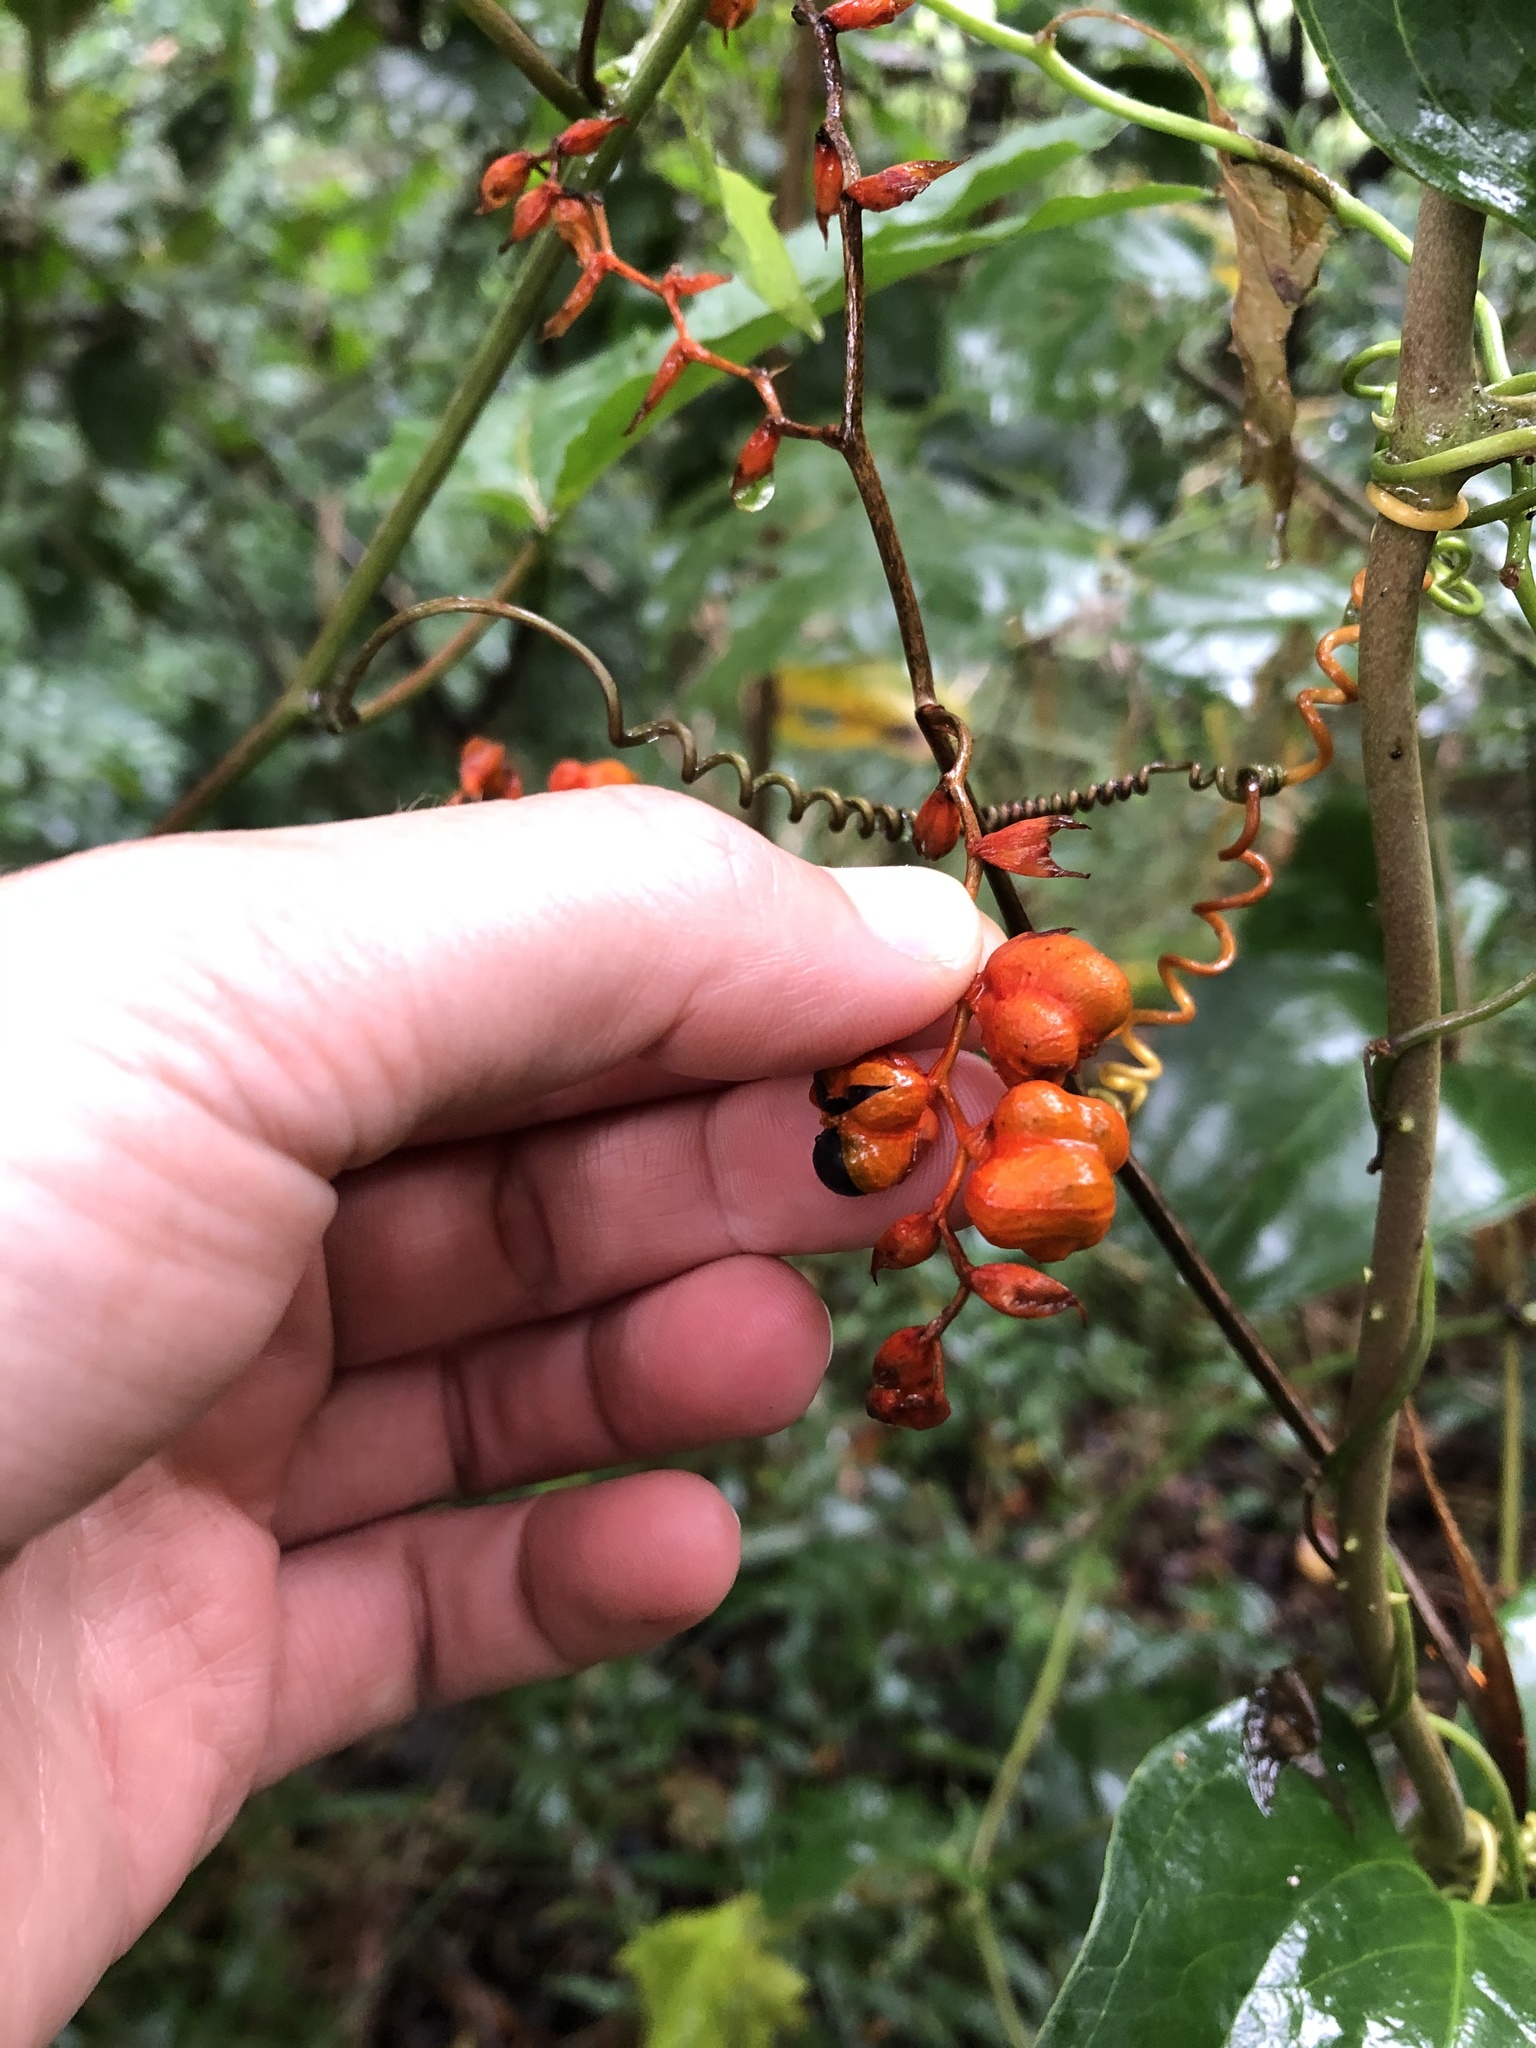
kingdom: Plantae
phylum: Tracheophyta
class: Liliopsida
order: Asparagales
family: Iridaceae
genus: Crocosmia
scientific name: Crocosmia aurea
